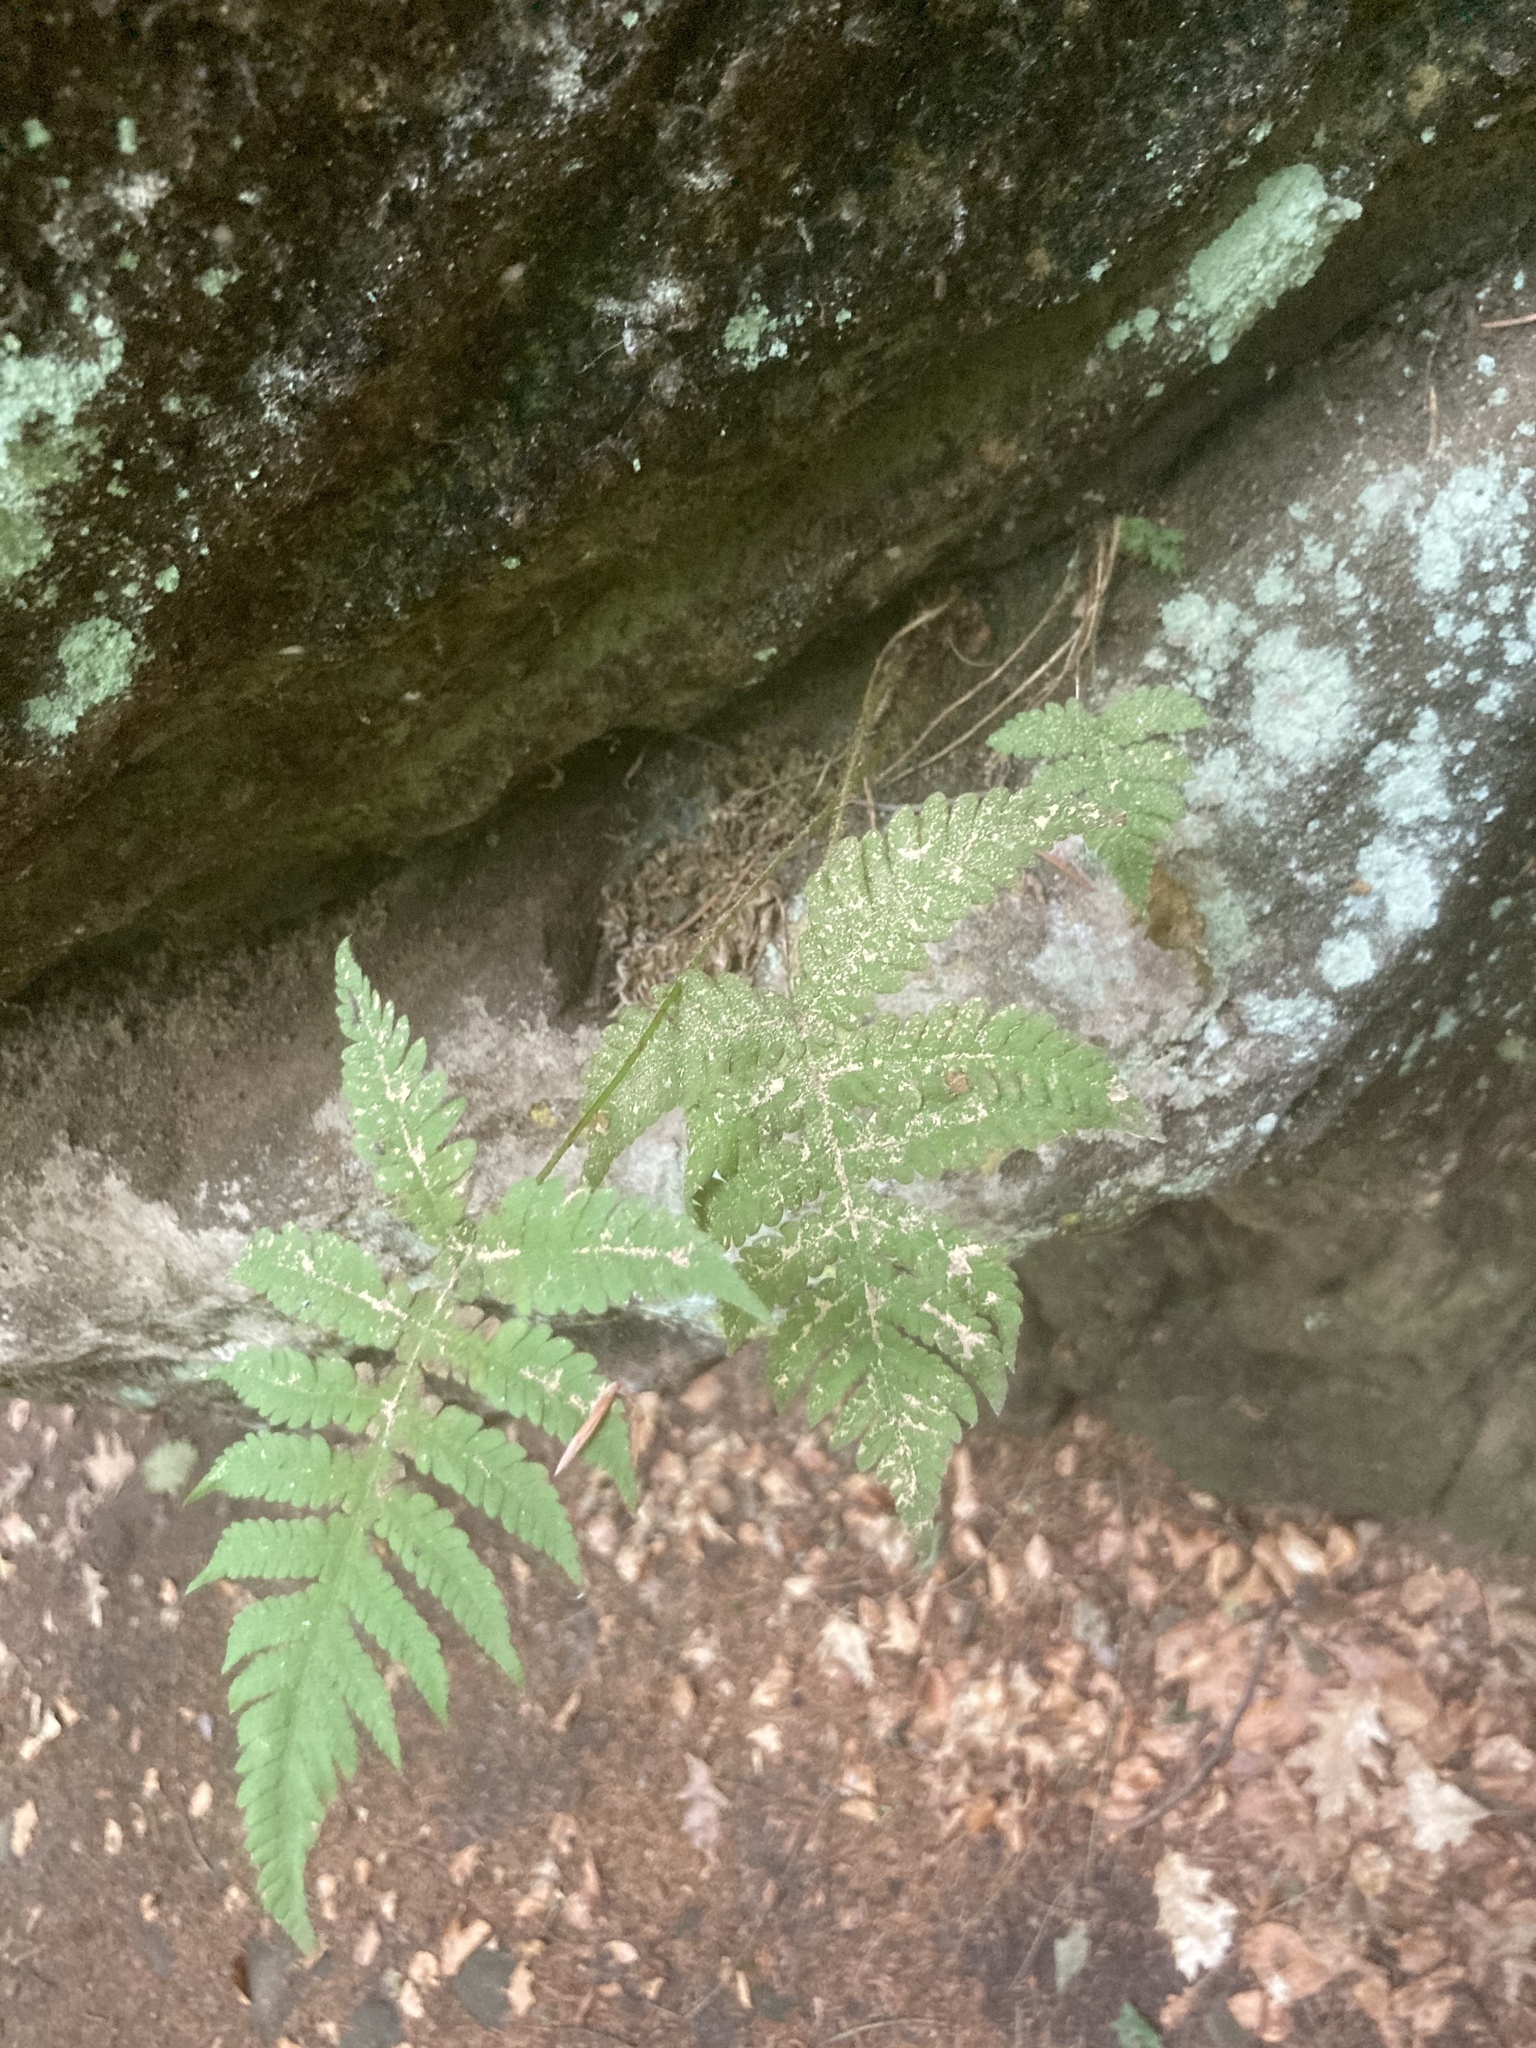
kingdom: Plantae
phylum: Tracheophyta
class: Polypodiopsida
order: Polypodiales
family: Thelypteridaceae
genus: Phegopteris
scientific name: Phegopteris connectilis
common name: Beech fern
